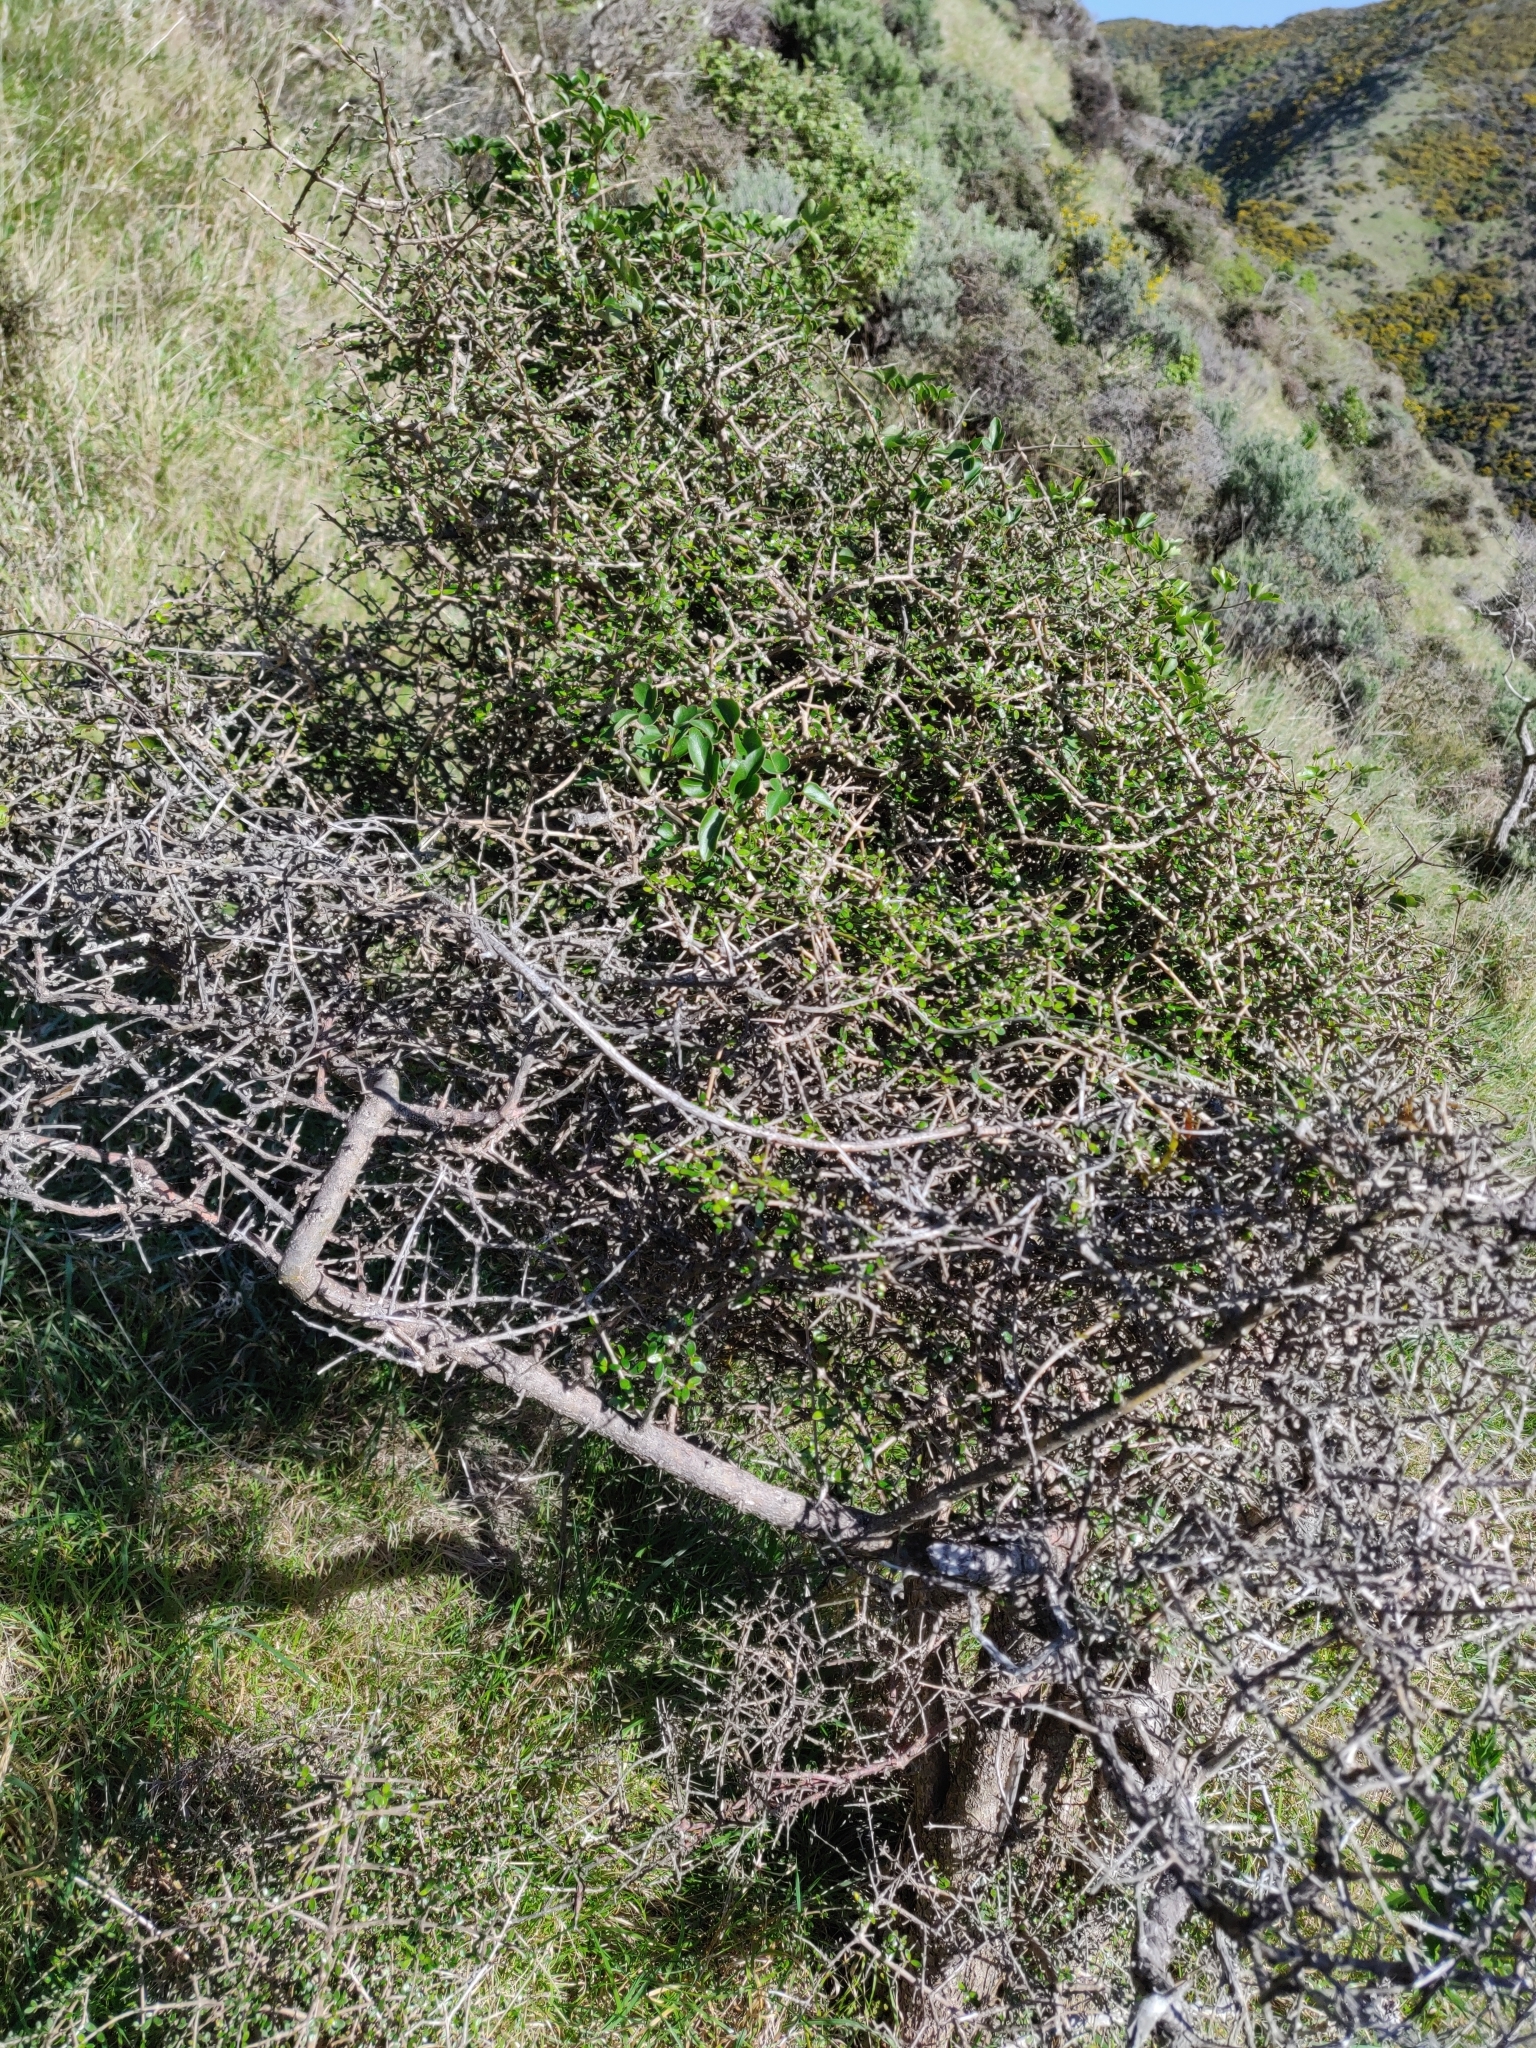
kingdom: Plantae
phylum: Tracheophyta
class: Magnoliopsida
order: Gentianales
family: Rubiaceae
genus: Coprosma
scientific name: Coprosma propinqua
